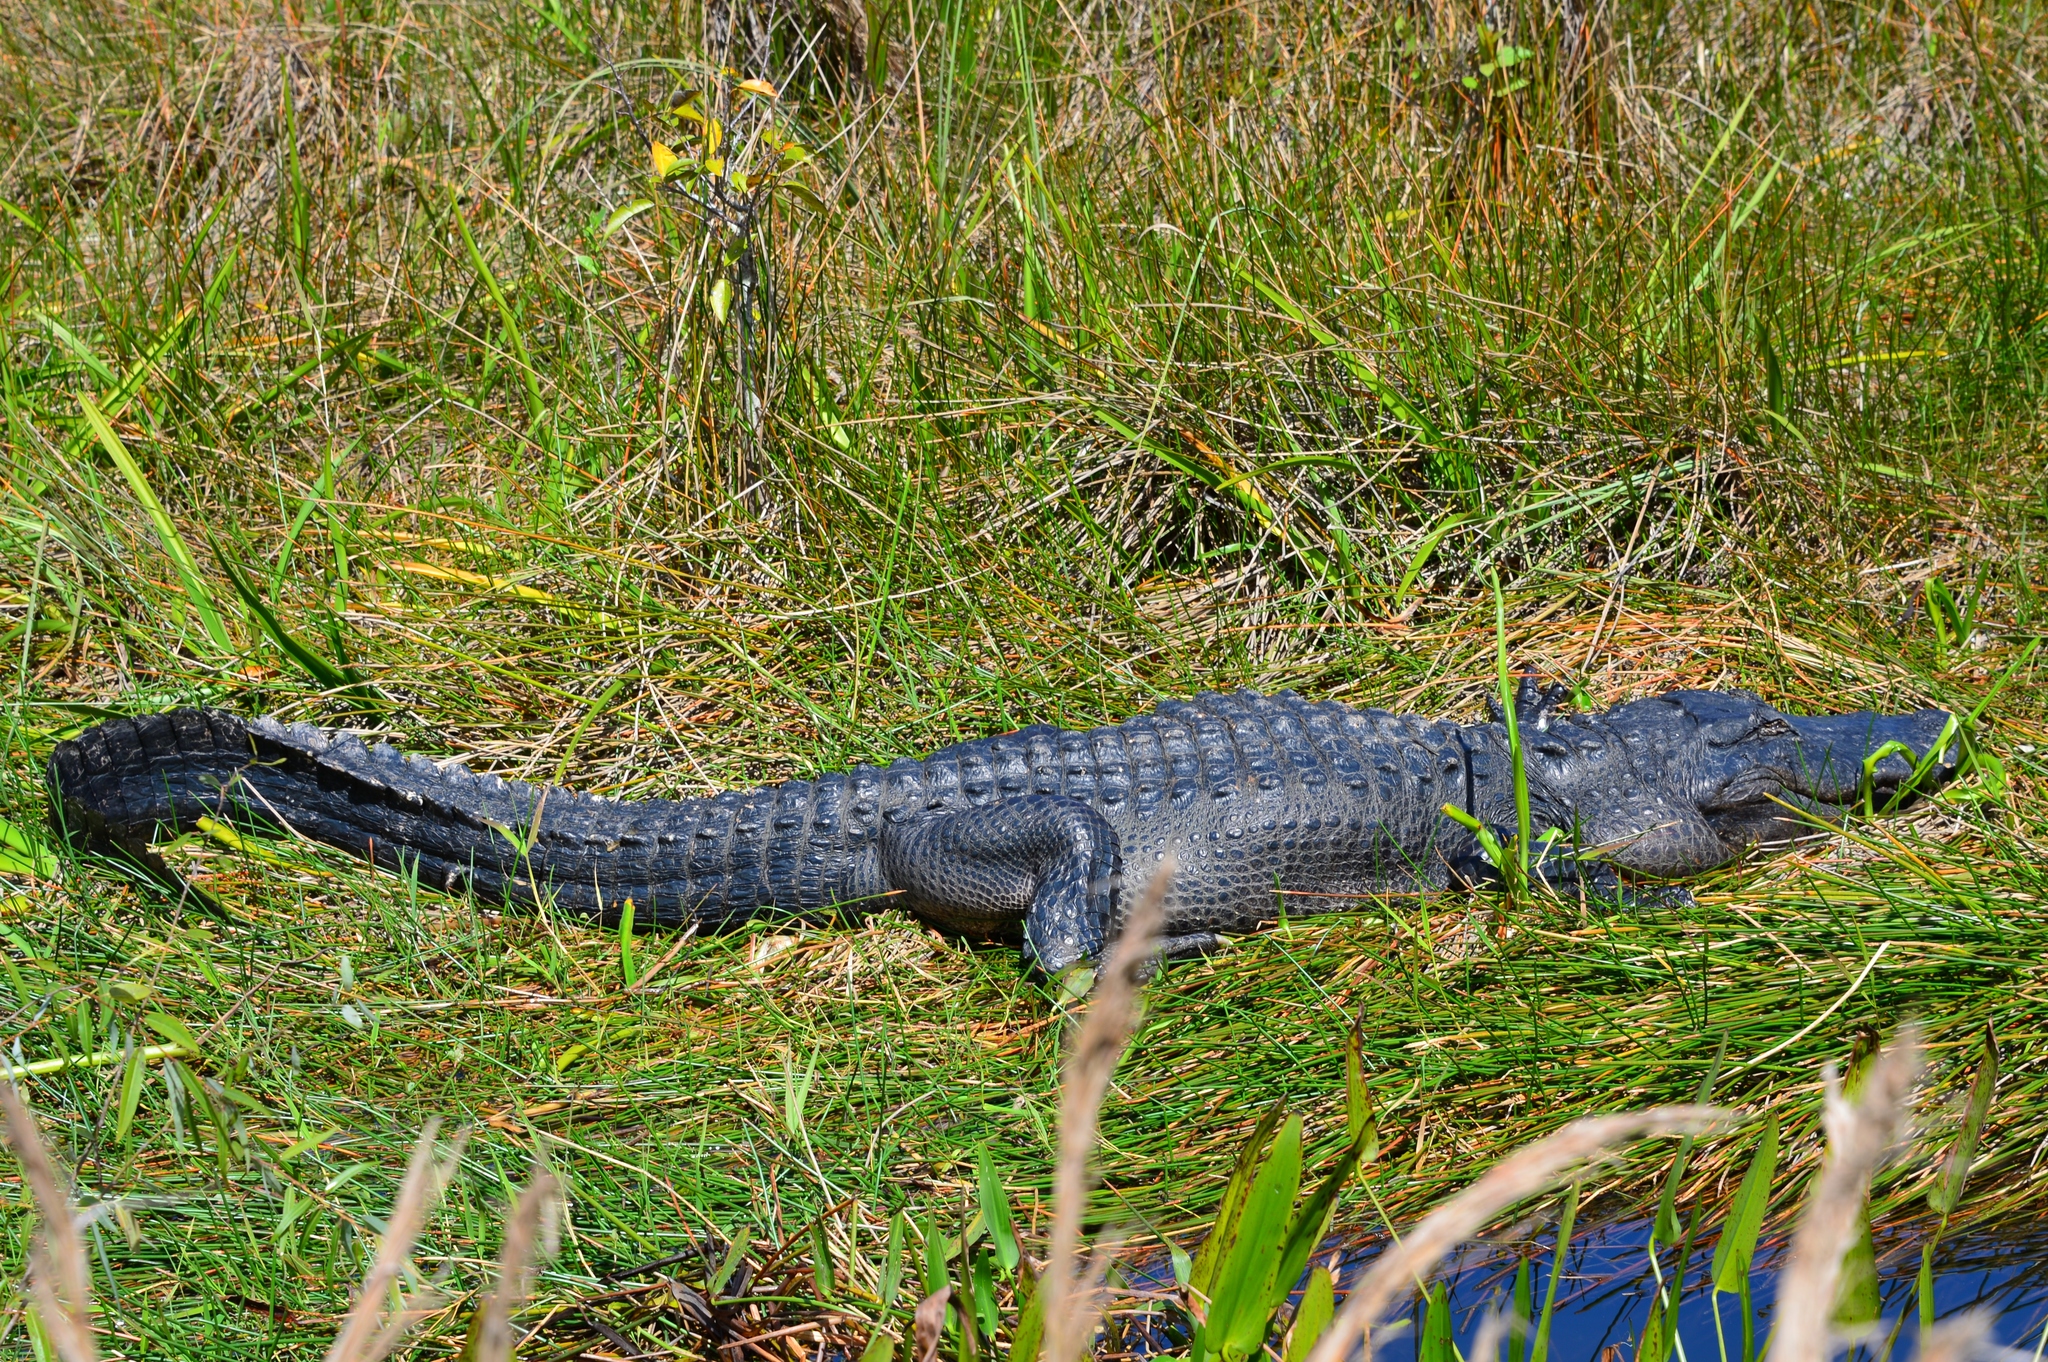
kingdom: Animalia
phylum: Chordata
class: Crocodylia
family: Alligatoridae
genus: Alligator
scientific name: Alligator mississippiensis
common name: American alligator
